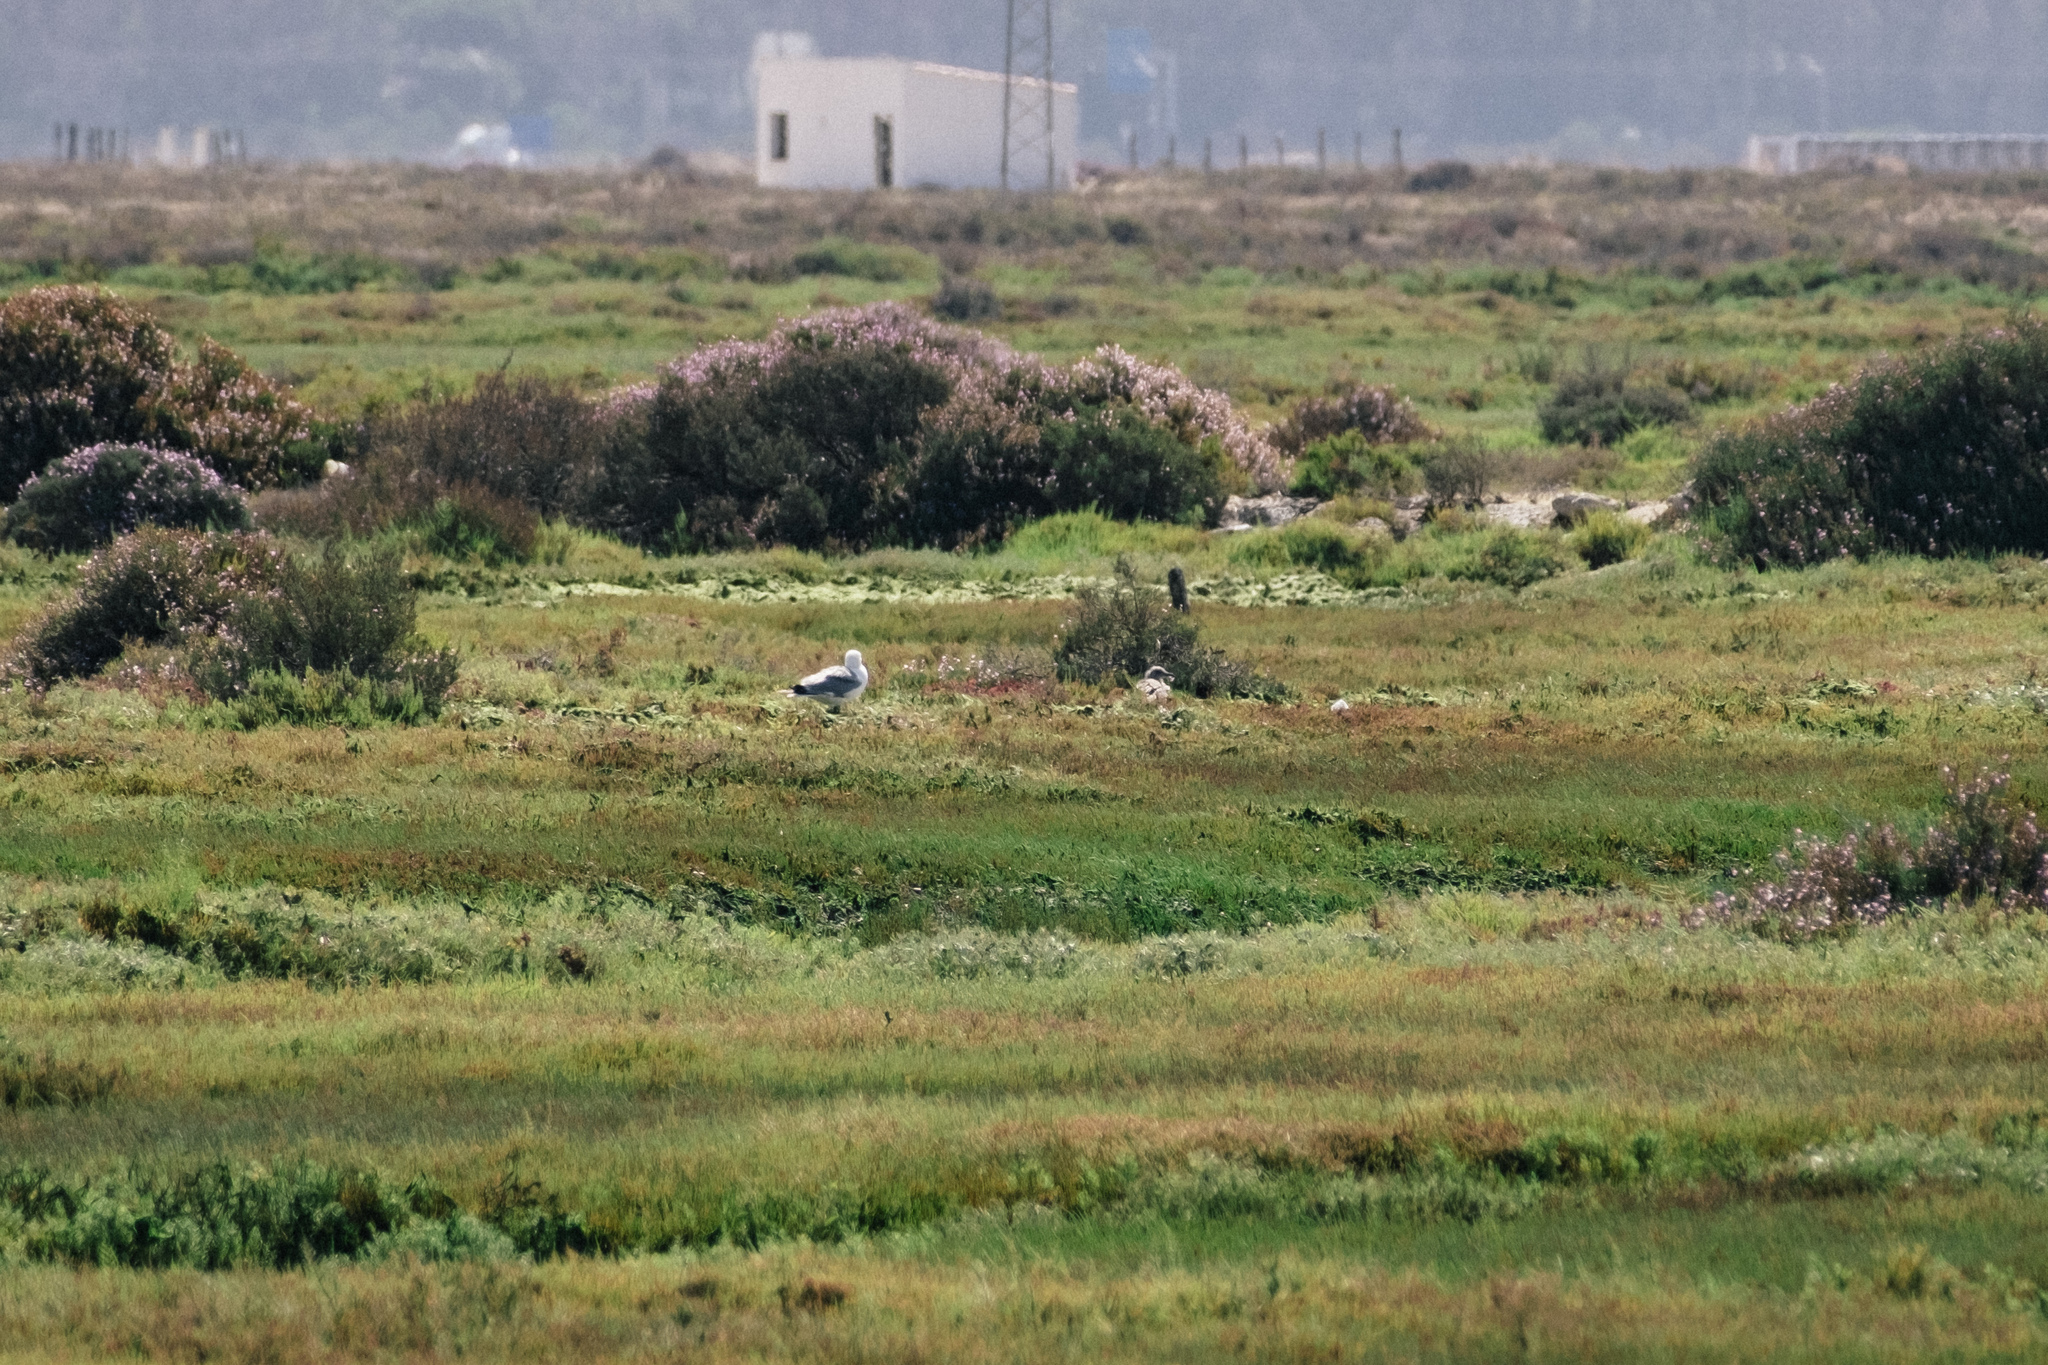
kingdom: Animalia
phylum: Chordata
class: Aves
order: Charadriiformes
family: Laridae
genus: Larus
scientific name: Larus michahellis
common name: Yellow-legged gull
